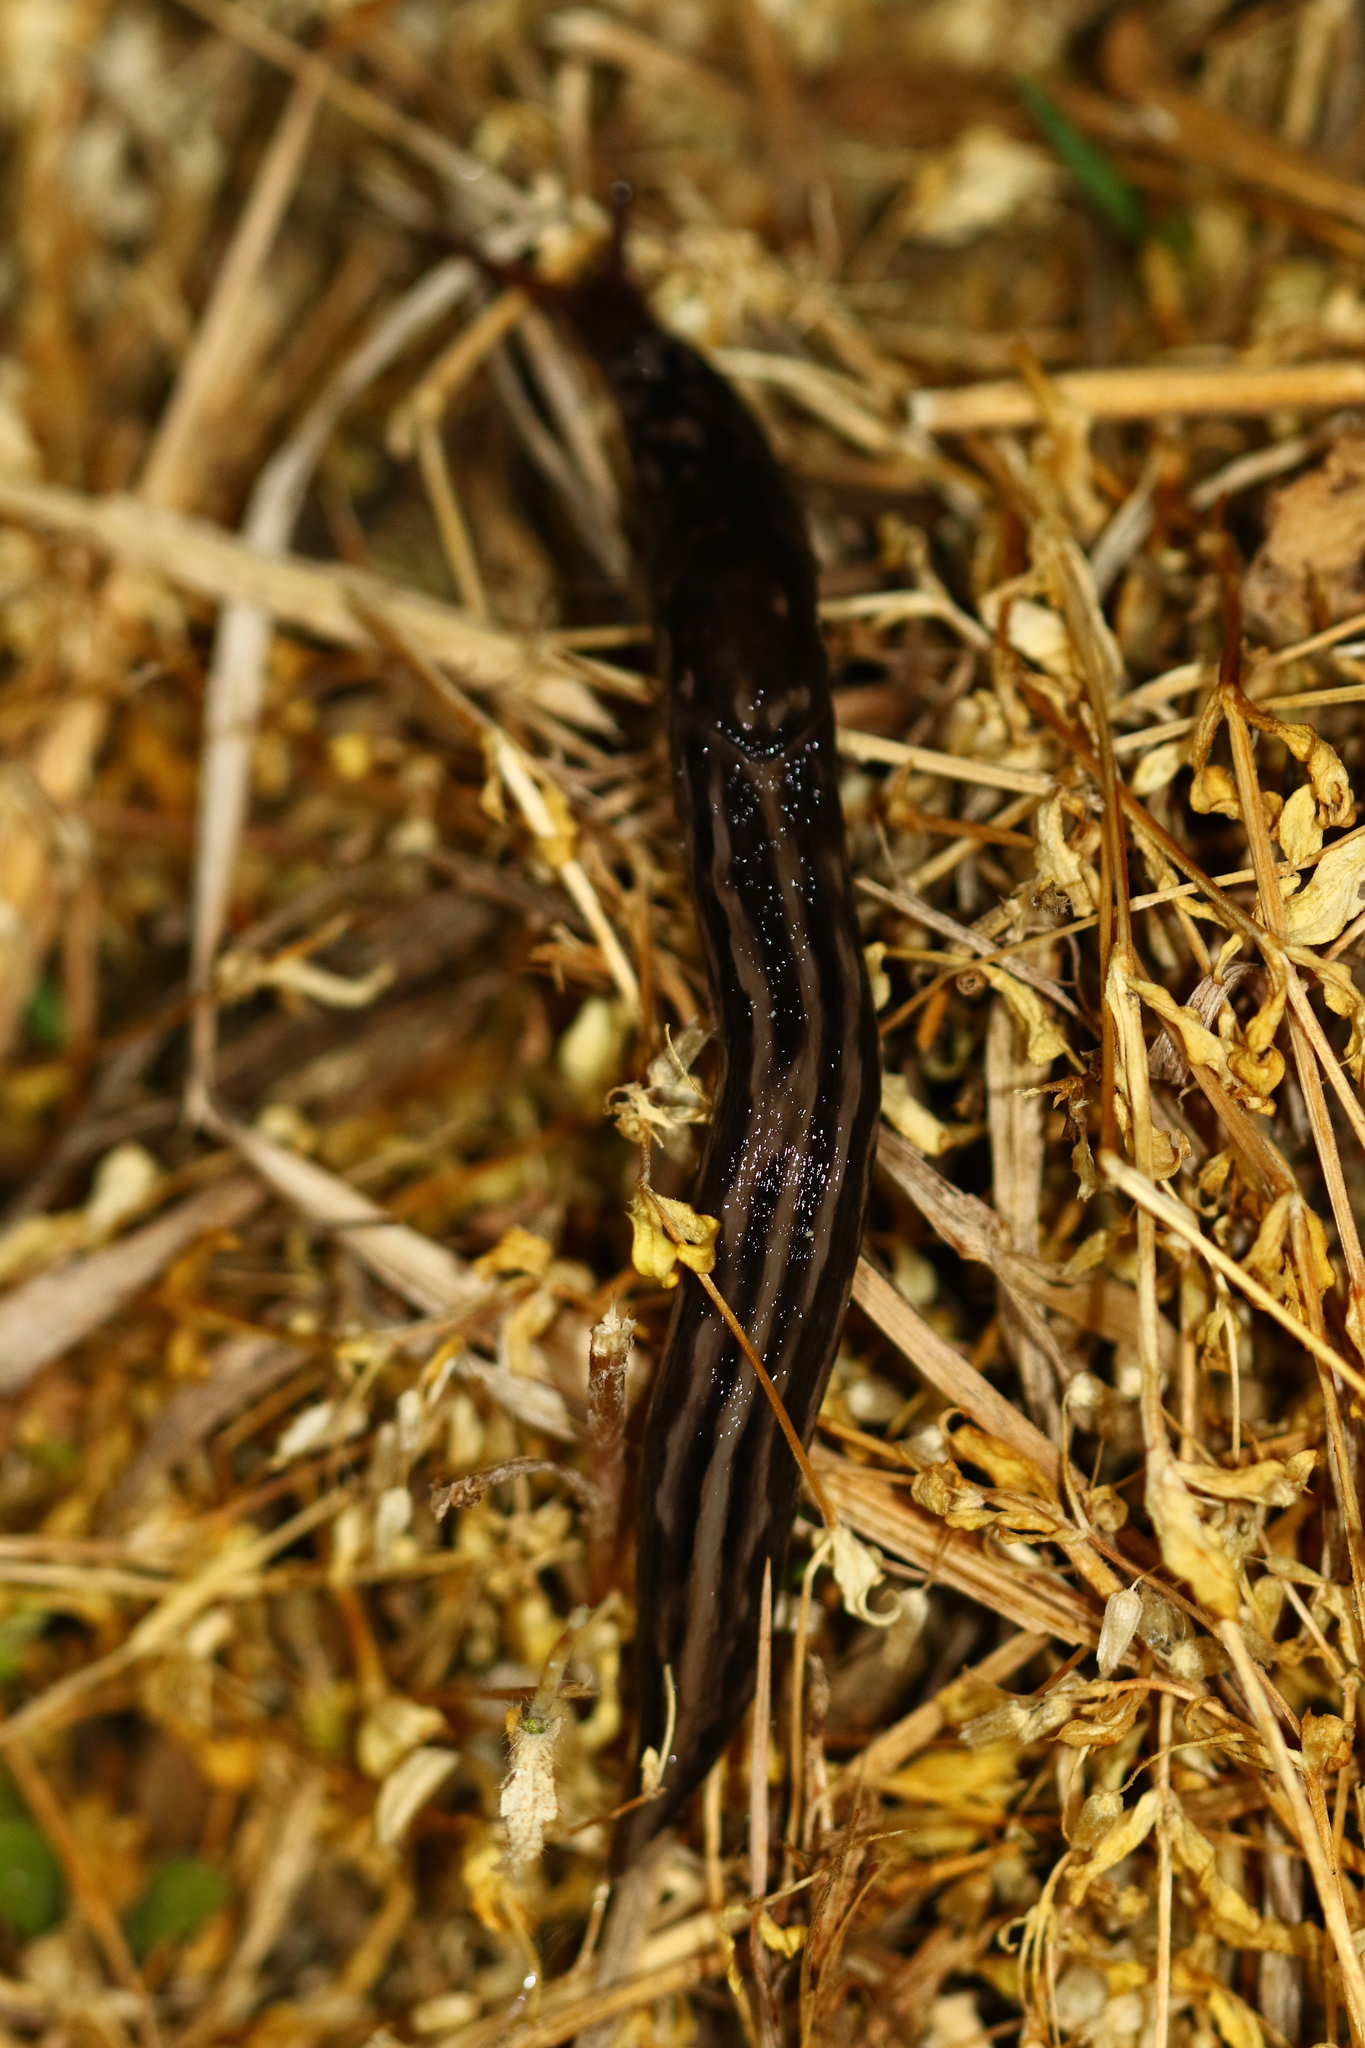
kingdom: Animalia
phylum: Mollusca
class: Gastropoda
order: Stylommatophora
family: Limacidae
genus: Limax
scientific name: Limax maximus
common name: Great grey slug
